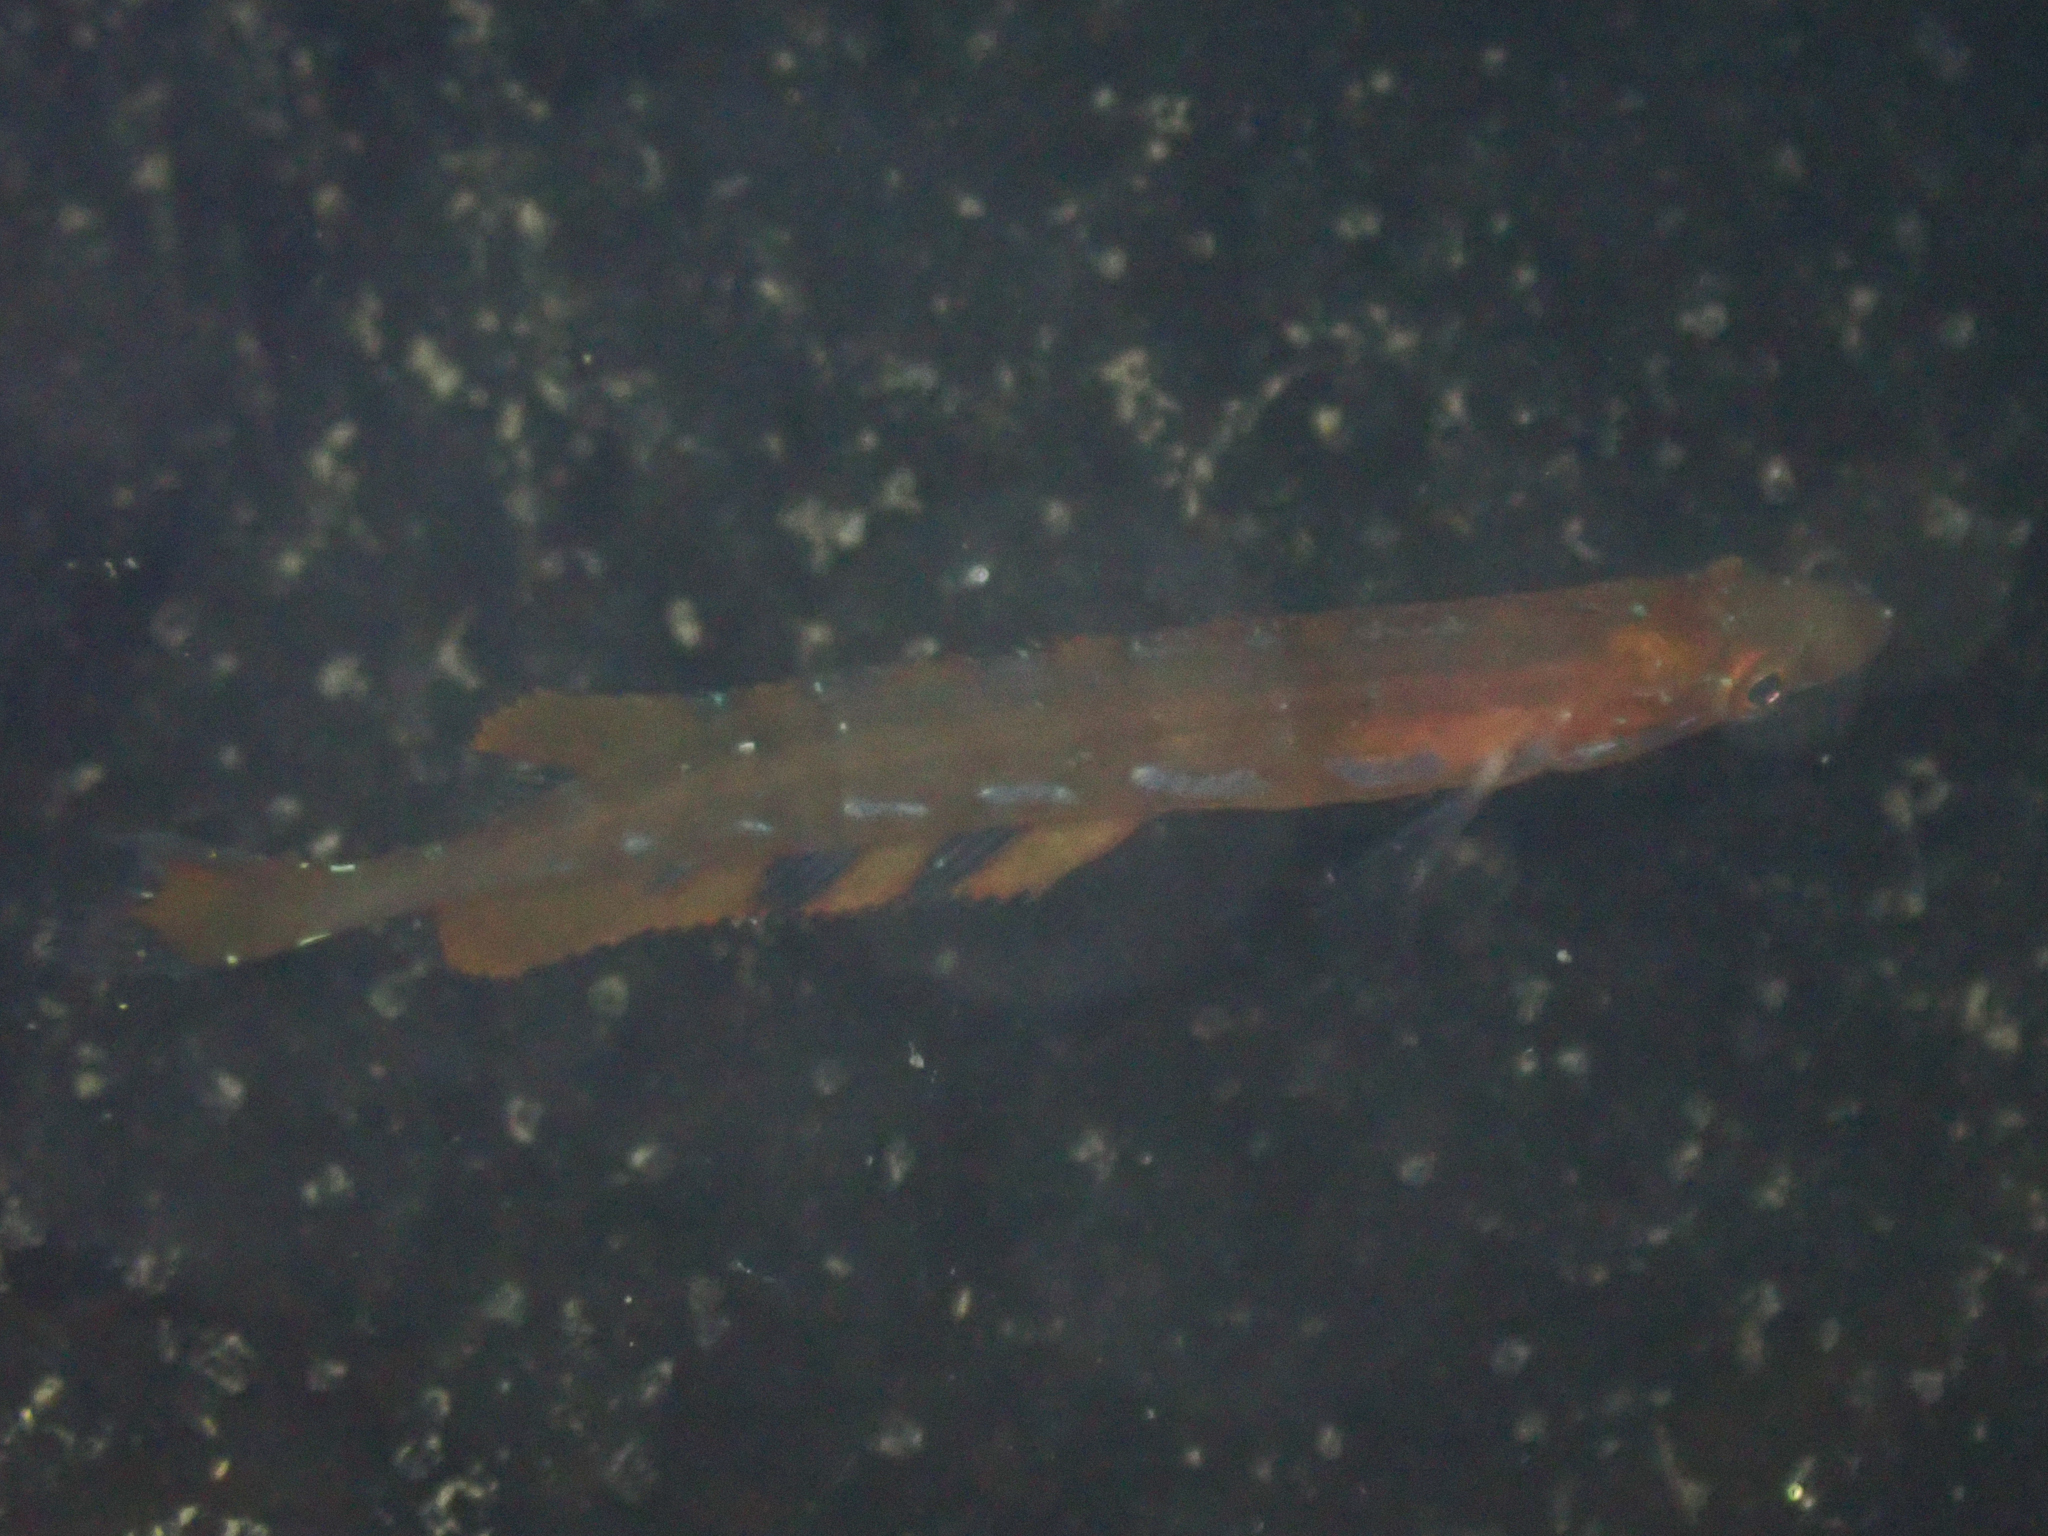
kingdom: Animalia
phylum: Chordata
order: Perciformes
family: Clinidae
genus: Heterostichus
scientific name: Heterostichus rostratus
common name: Giant kelpfish
